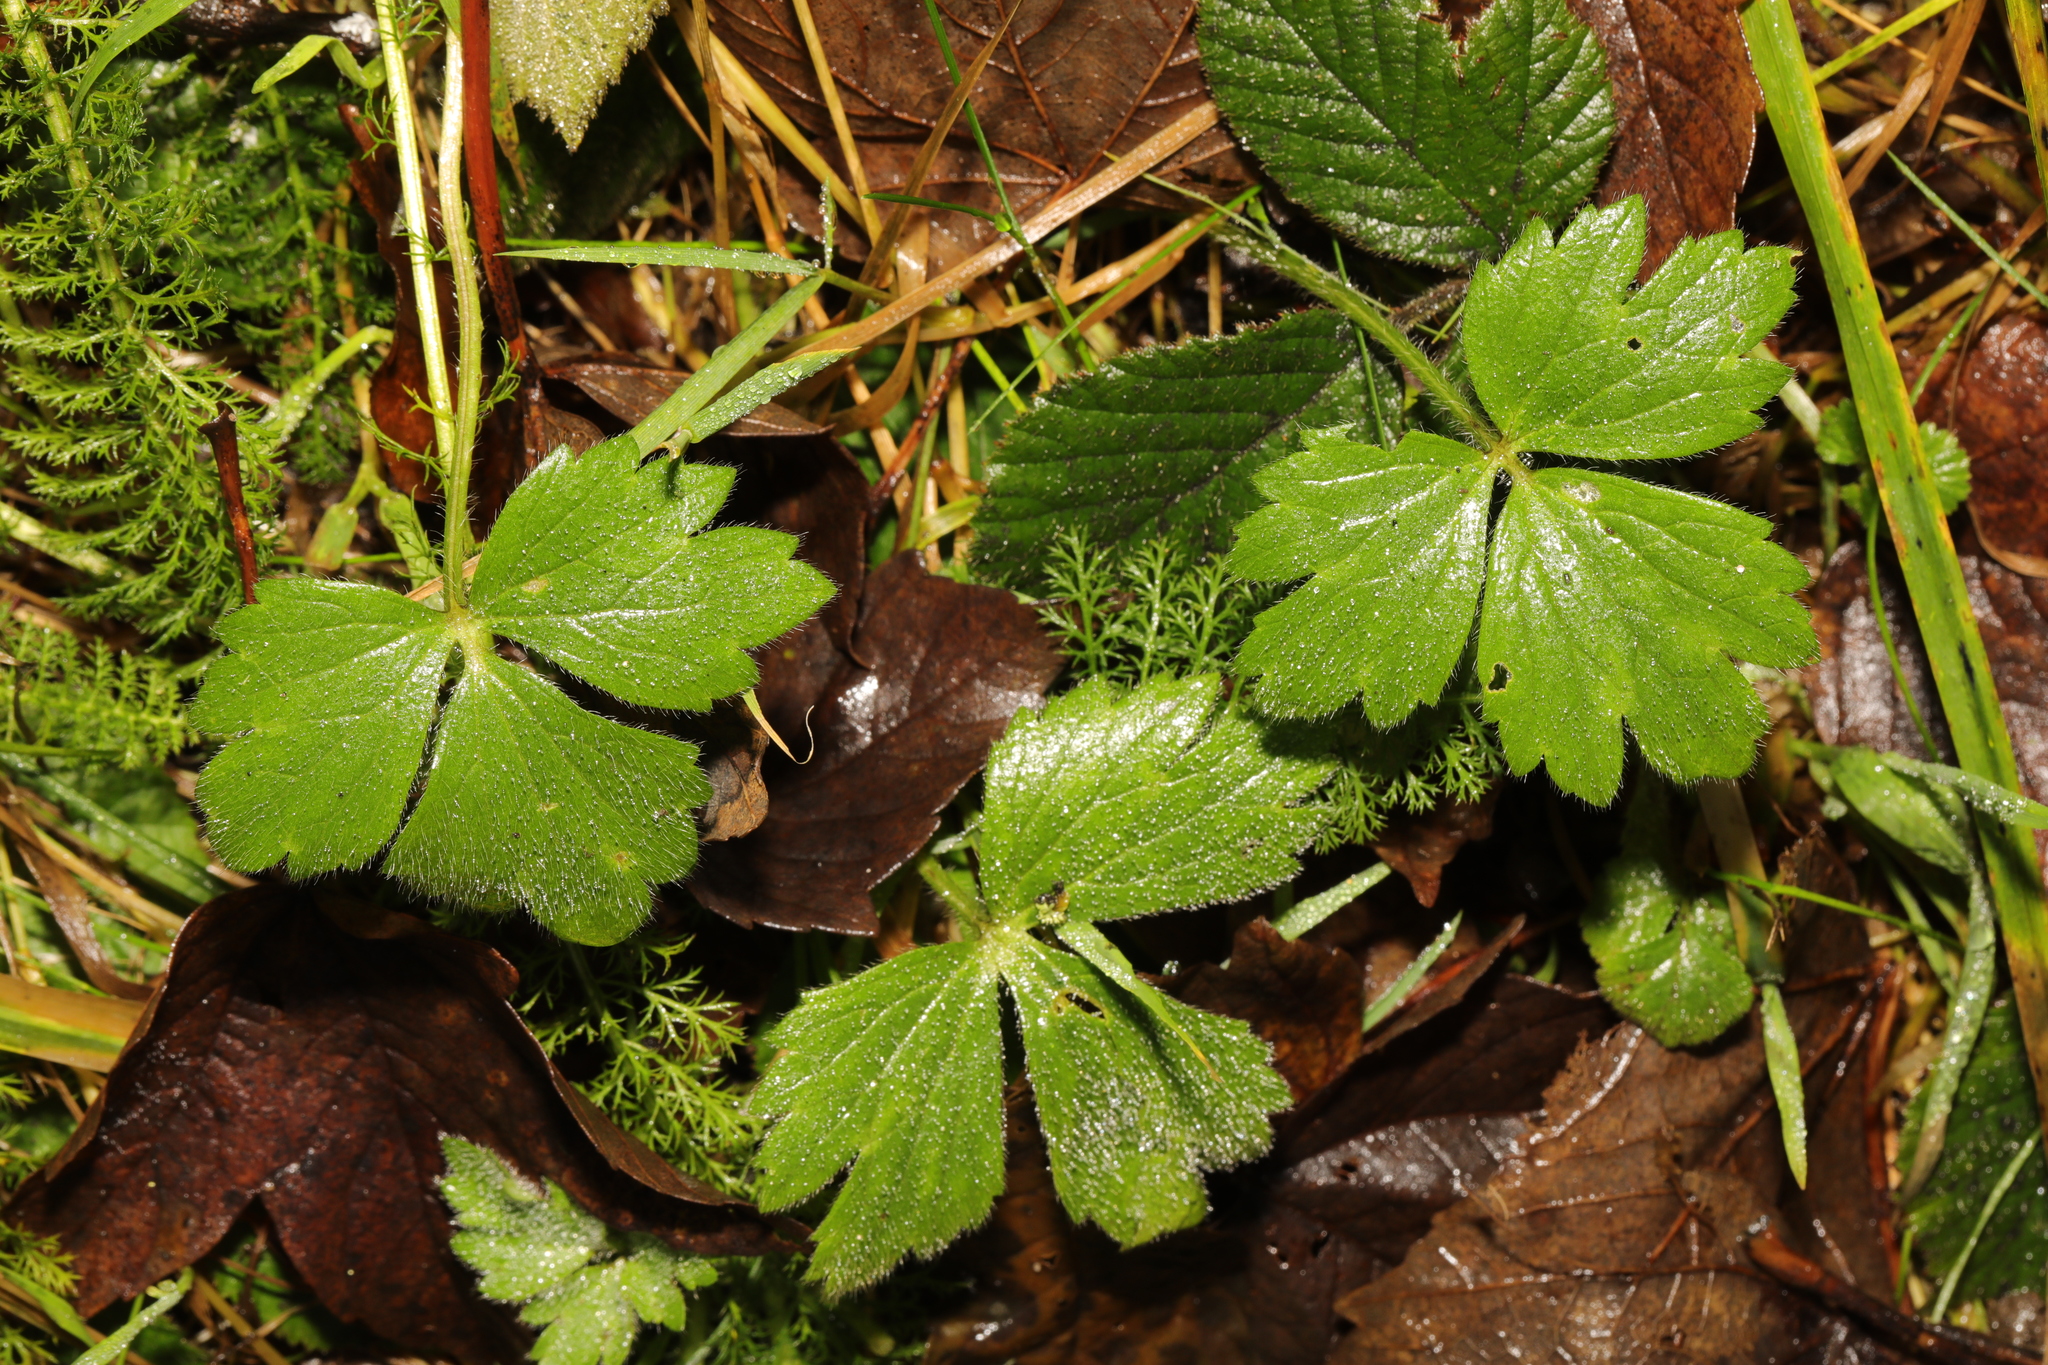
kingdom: Plantae
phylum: Tracheophyta
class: Magnoliopsida
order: Ranunculales
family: Ranunculaceae
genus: Ranunculus
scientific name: Ranunculus repens
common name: Creeping buttercup
